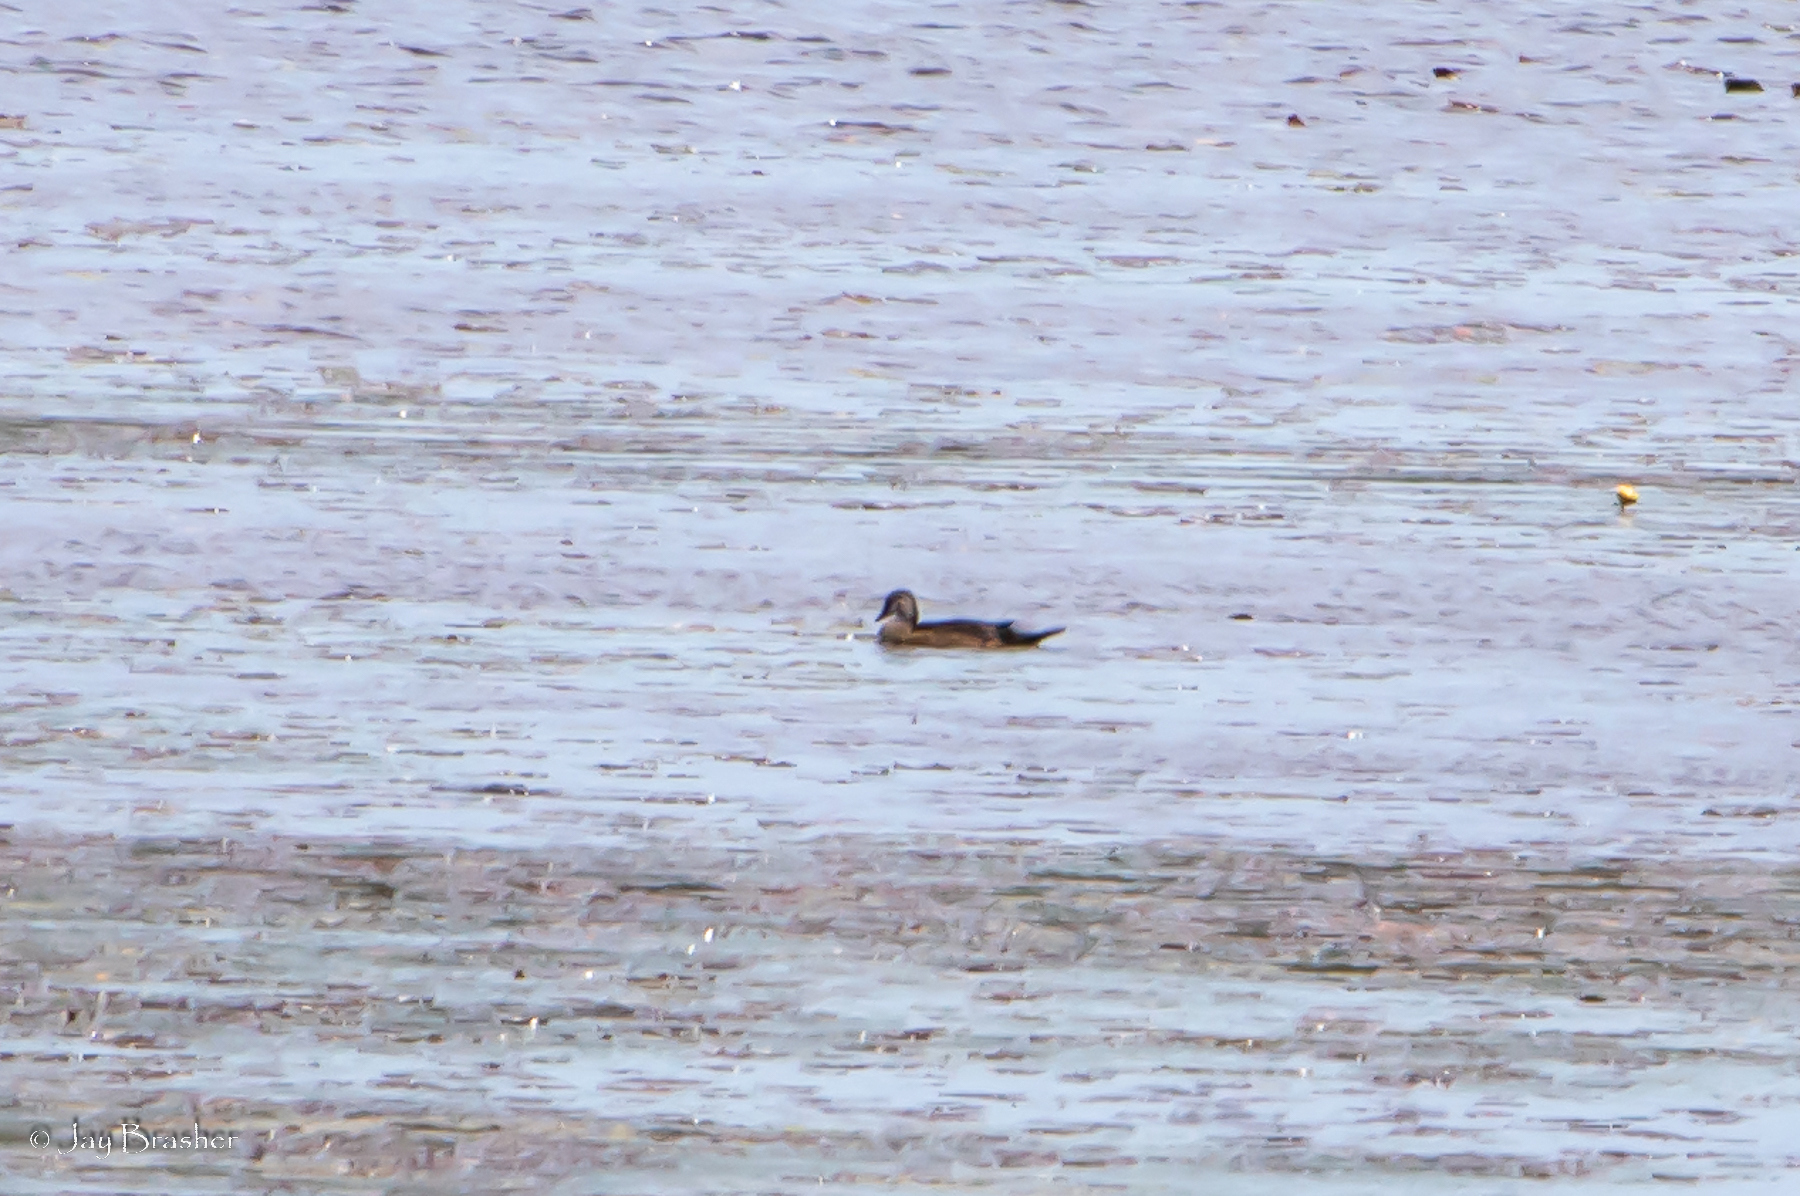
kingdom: Animalia
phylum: Chordata
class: Aves
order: Anseriformes
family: Anatidae
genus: Mareca
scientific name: Mareca strepera
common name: Gadwall
